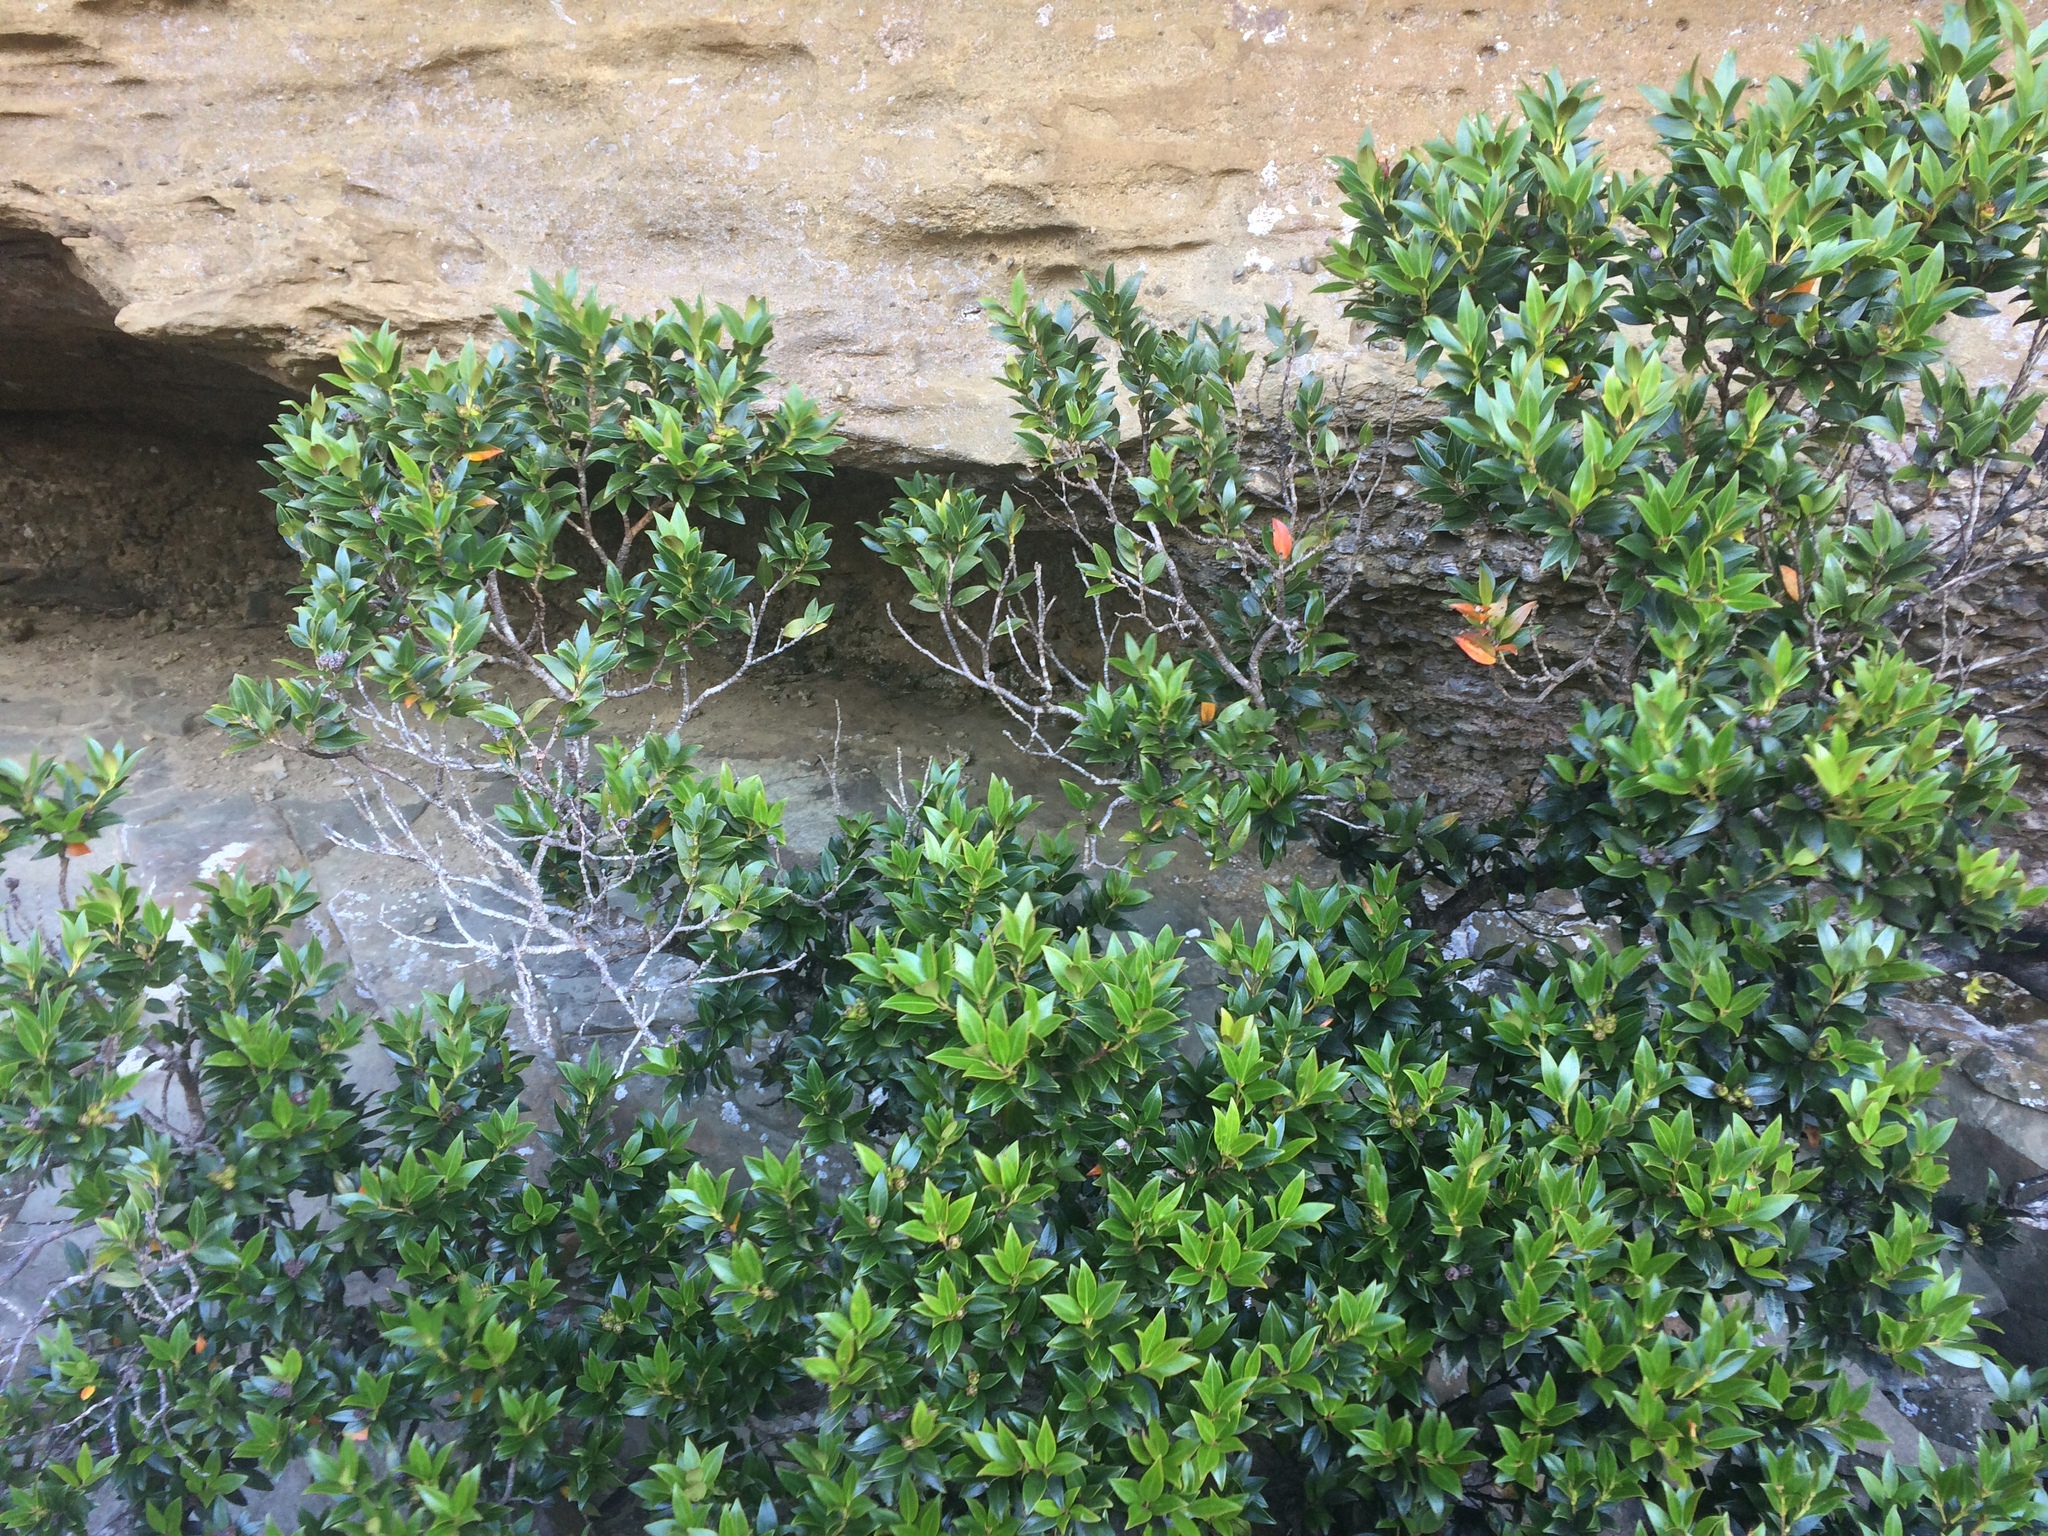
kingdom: Plantae
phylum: Tracheophyta
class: Magnoliopsida
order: Myrtales
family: Myrtaceae
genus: Metrosideros
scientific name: Metrosideros umbellata
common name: Southern rata
